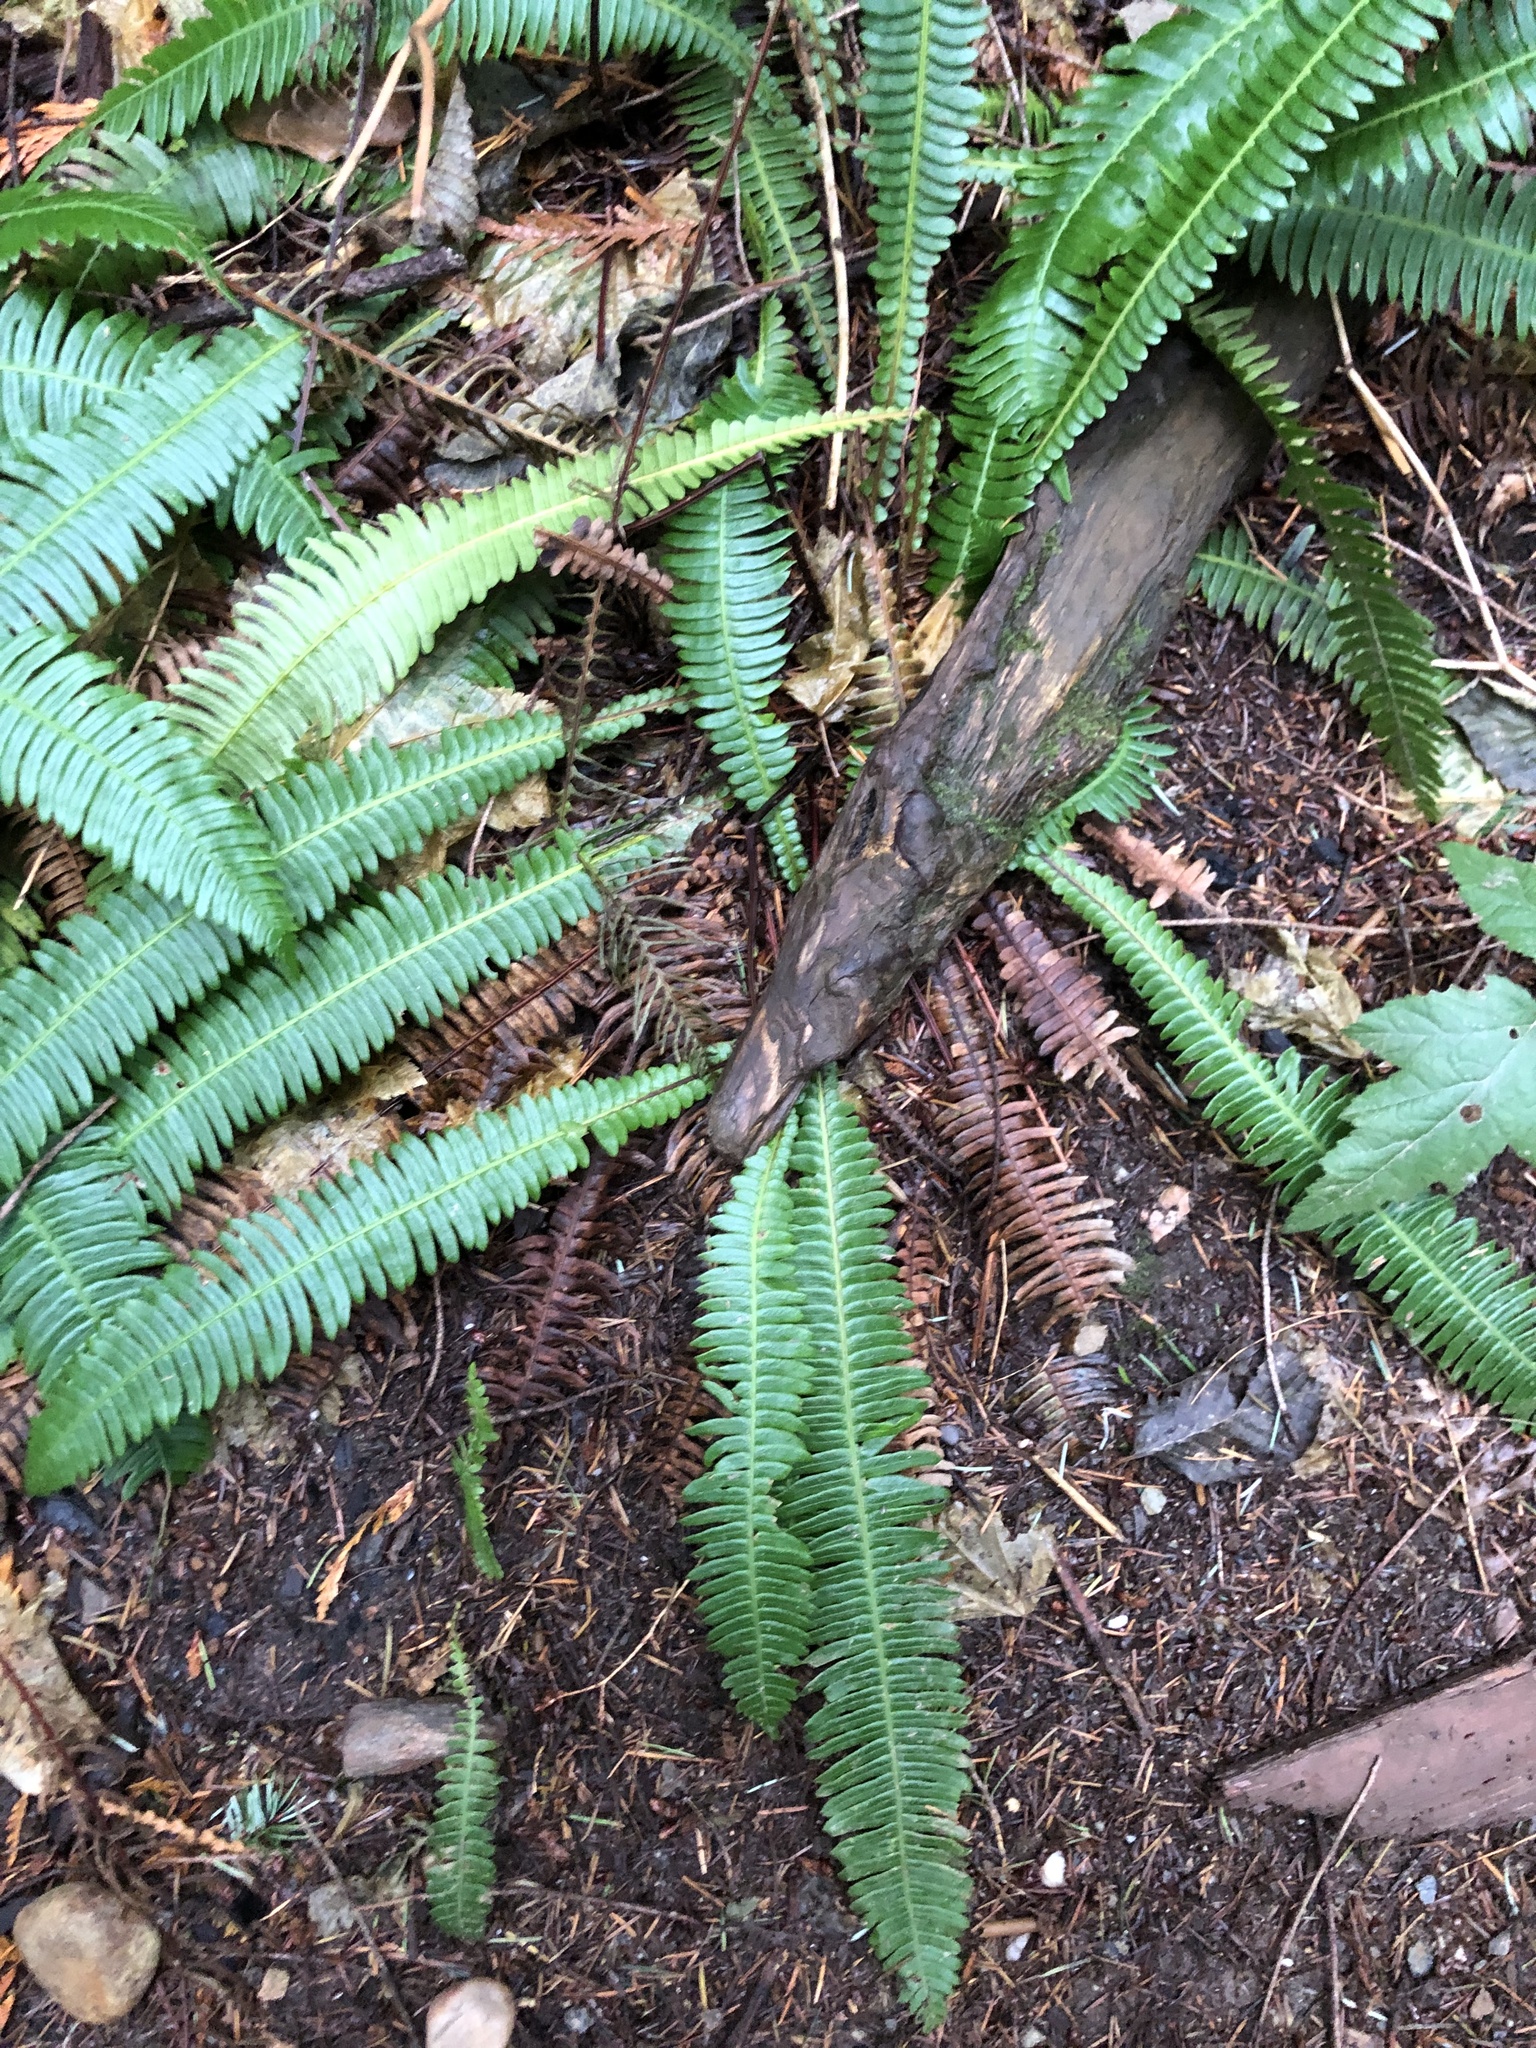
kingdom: Plantae
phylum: Tracheophyta
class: Polypodiopsida
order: Polypodiales
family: Blechnaceae
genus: Struthiopteris
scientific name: Struthiopteris spicant
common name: Deer fern
